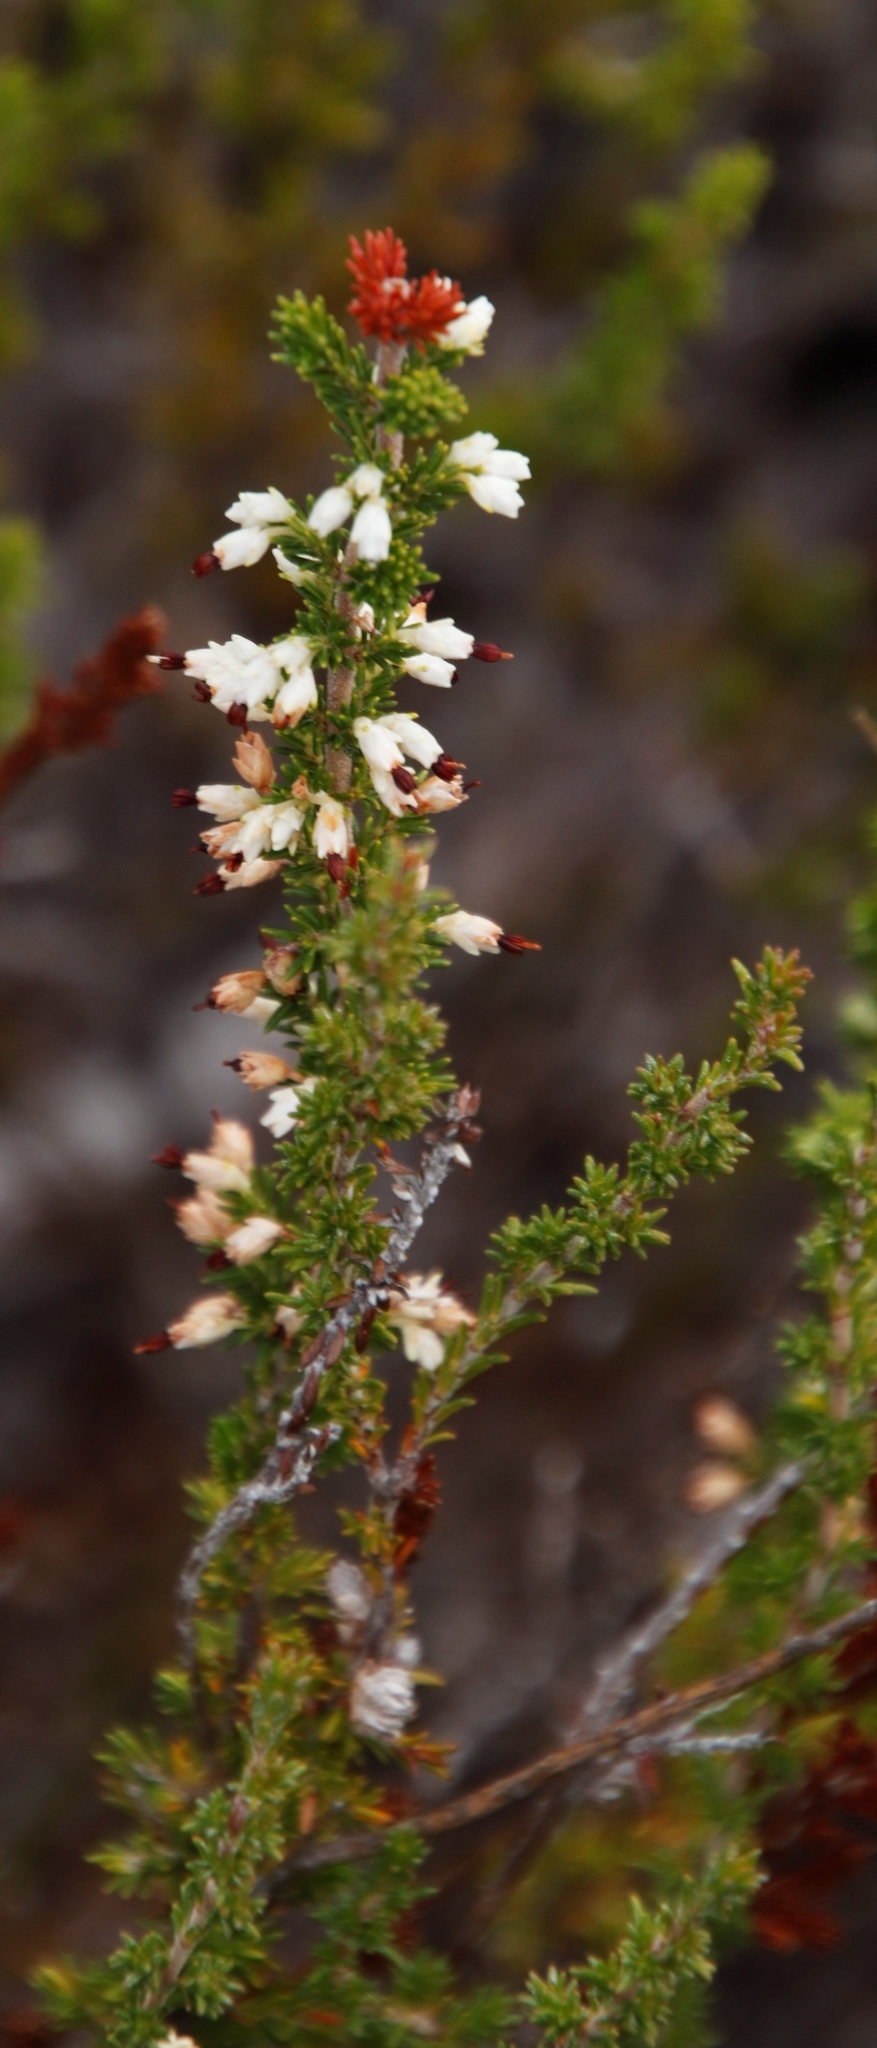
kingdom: Plantae
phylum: Tracheophyta
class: Magnoliopsida
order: Ericales
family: Ericaceae
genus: Erica
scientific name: Erica imbricata
